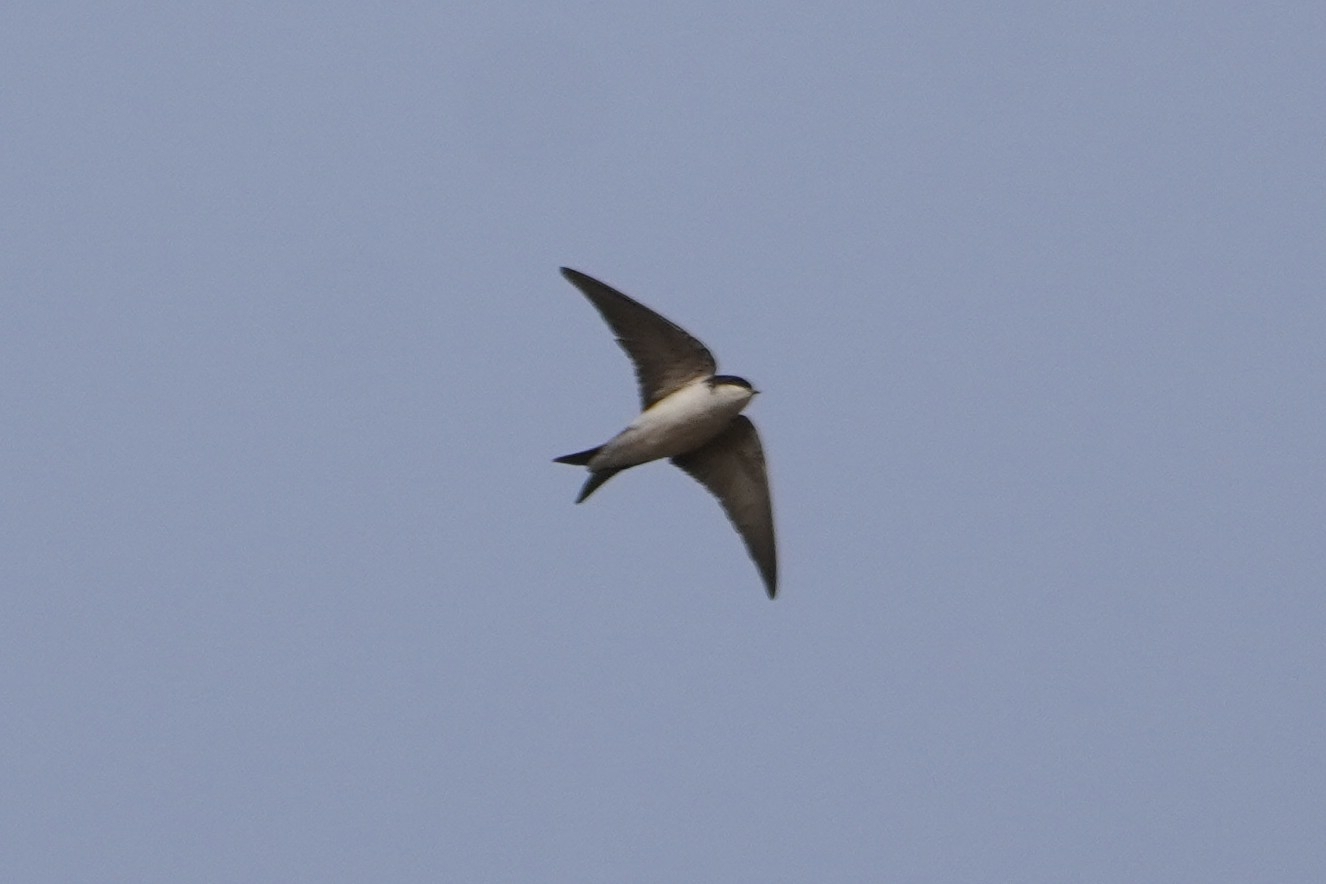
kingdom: Animalia
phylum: Chordata
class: Aves
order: Passeriformes
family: Hirundinidae
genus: Delichon
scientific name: Delichon urbicum
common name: Common house martin
